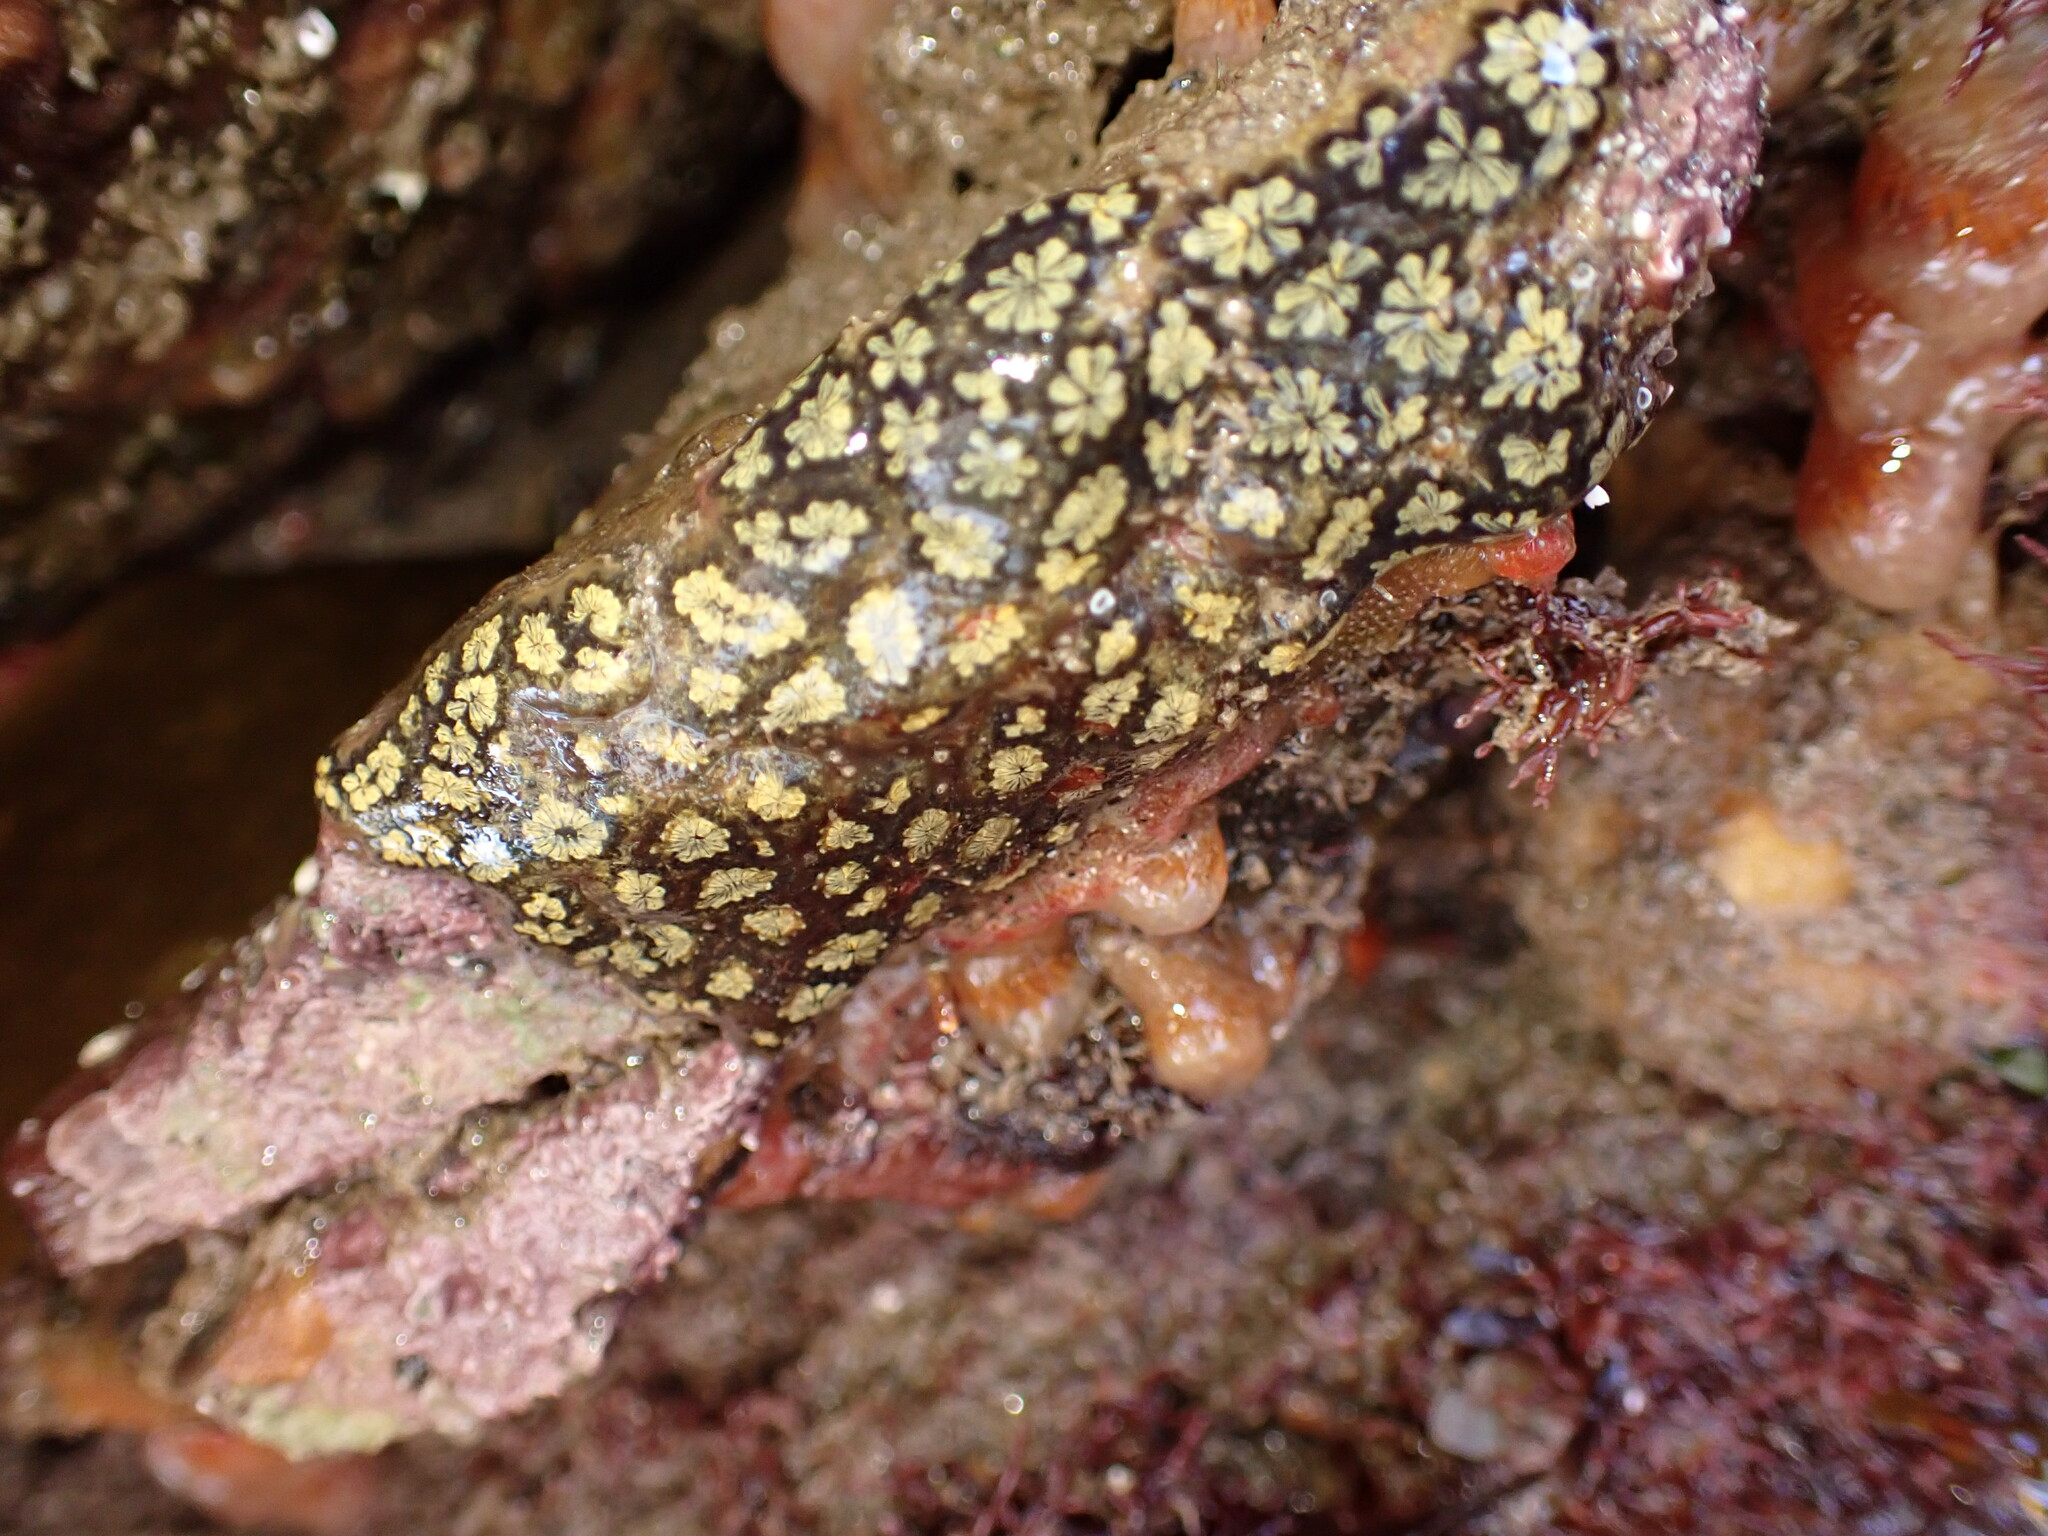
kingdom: Animalia
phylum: Chordata
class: Ascidiacea
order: Stolidobranchia
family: Styelidae
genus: Botryllus
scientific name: Botryllus schlosseri
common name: Golden star tunicate
